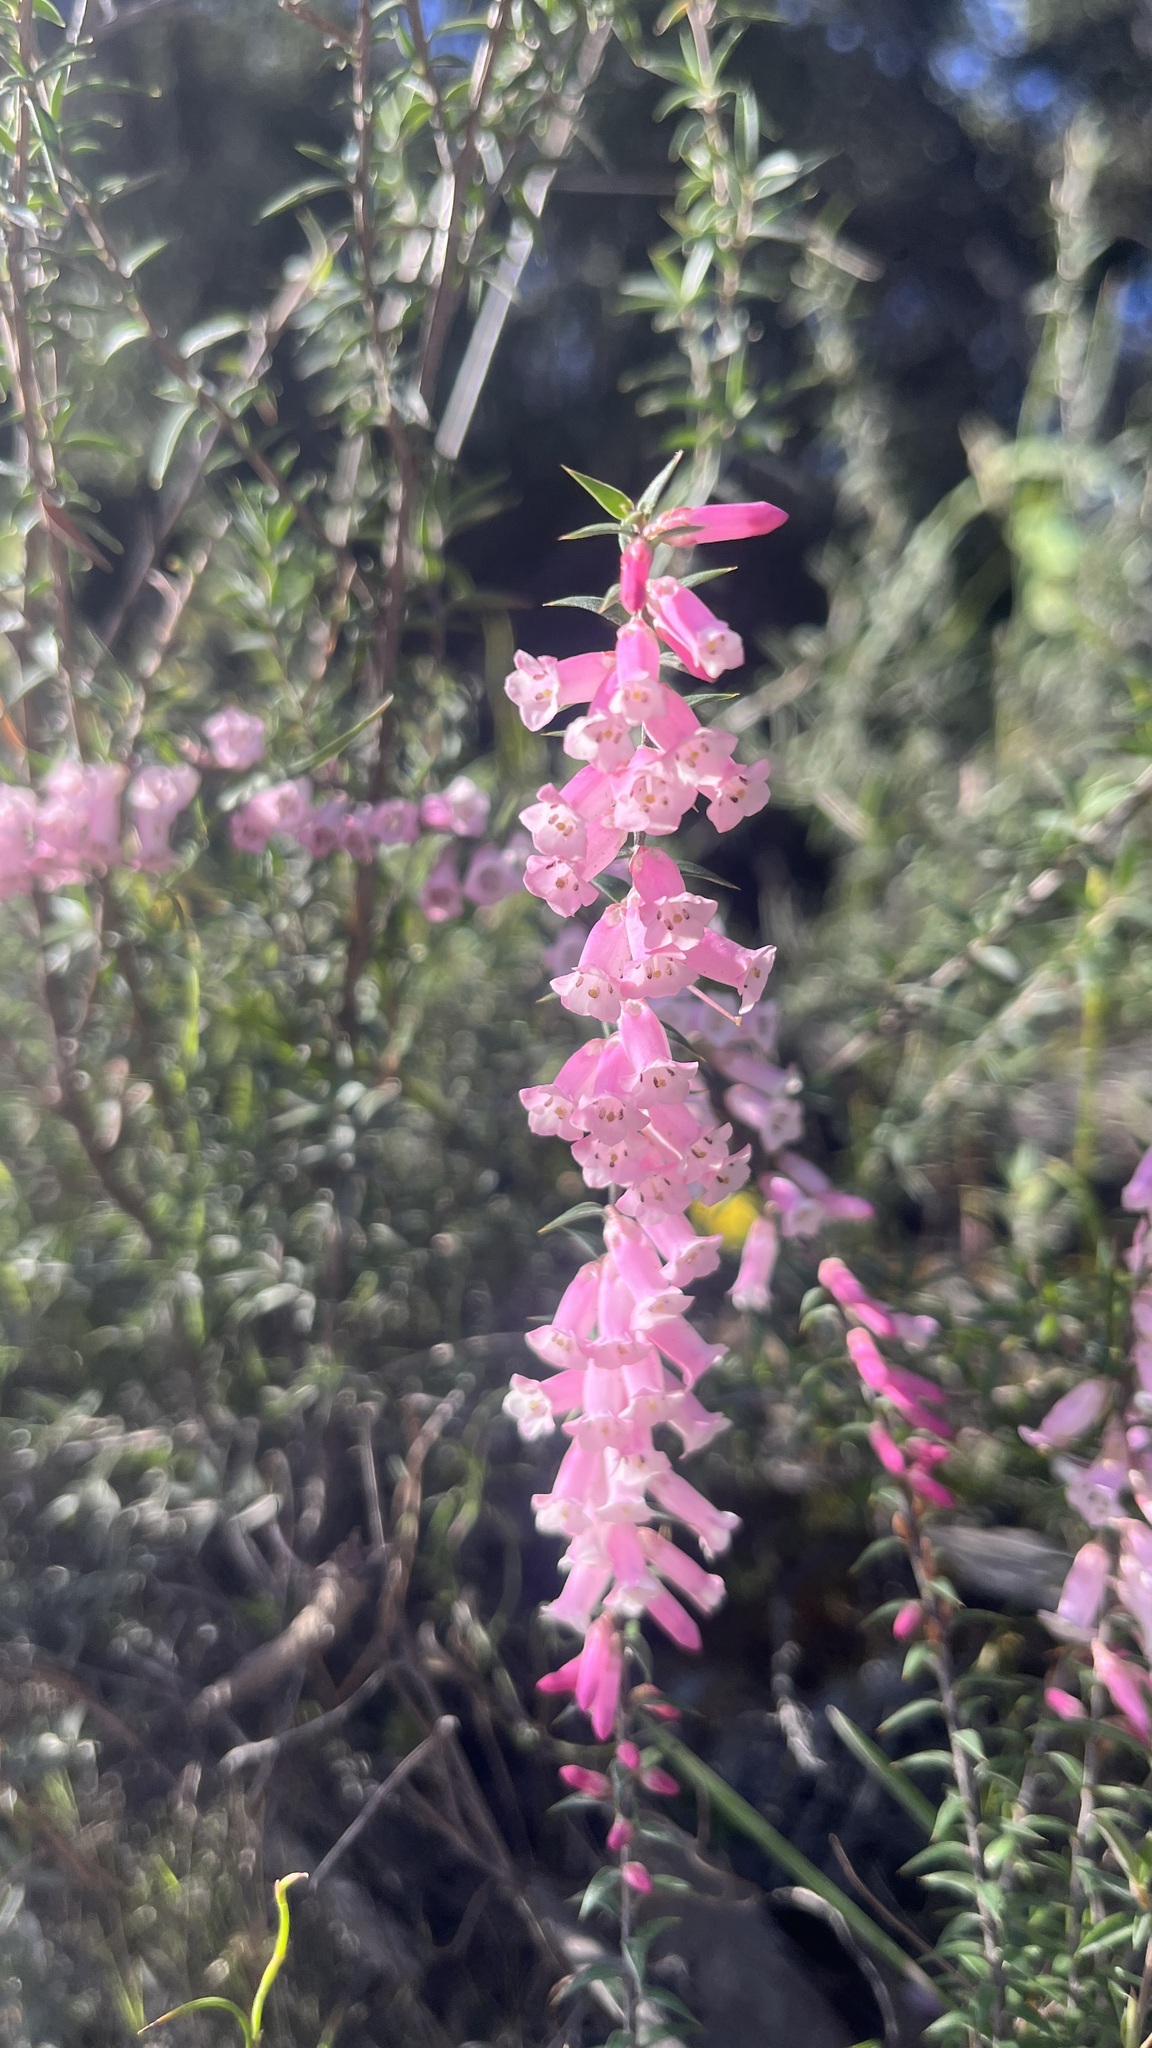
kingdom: Plantae
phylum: Tracheophyta
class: Magnoliopsida
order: Ericales
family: Ericaceae
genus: Epacris
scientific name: Epacris impressa
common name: Common-heath
